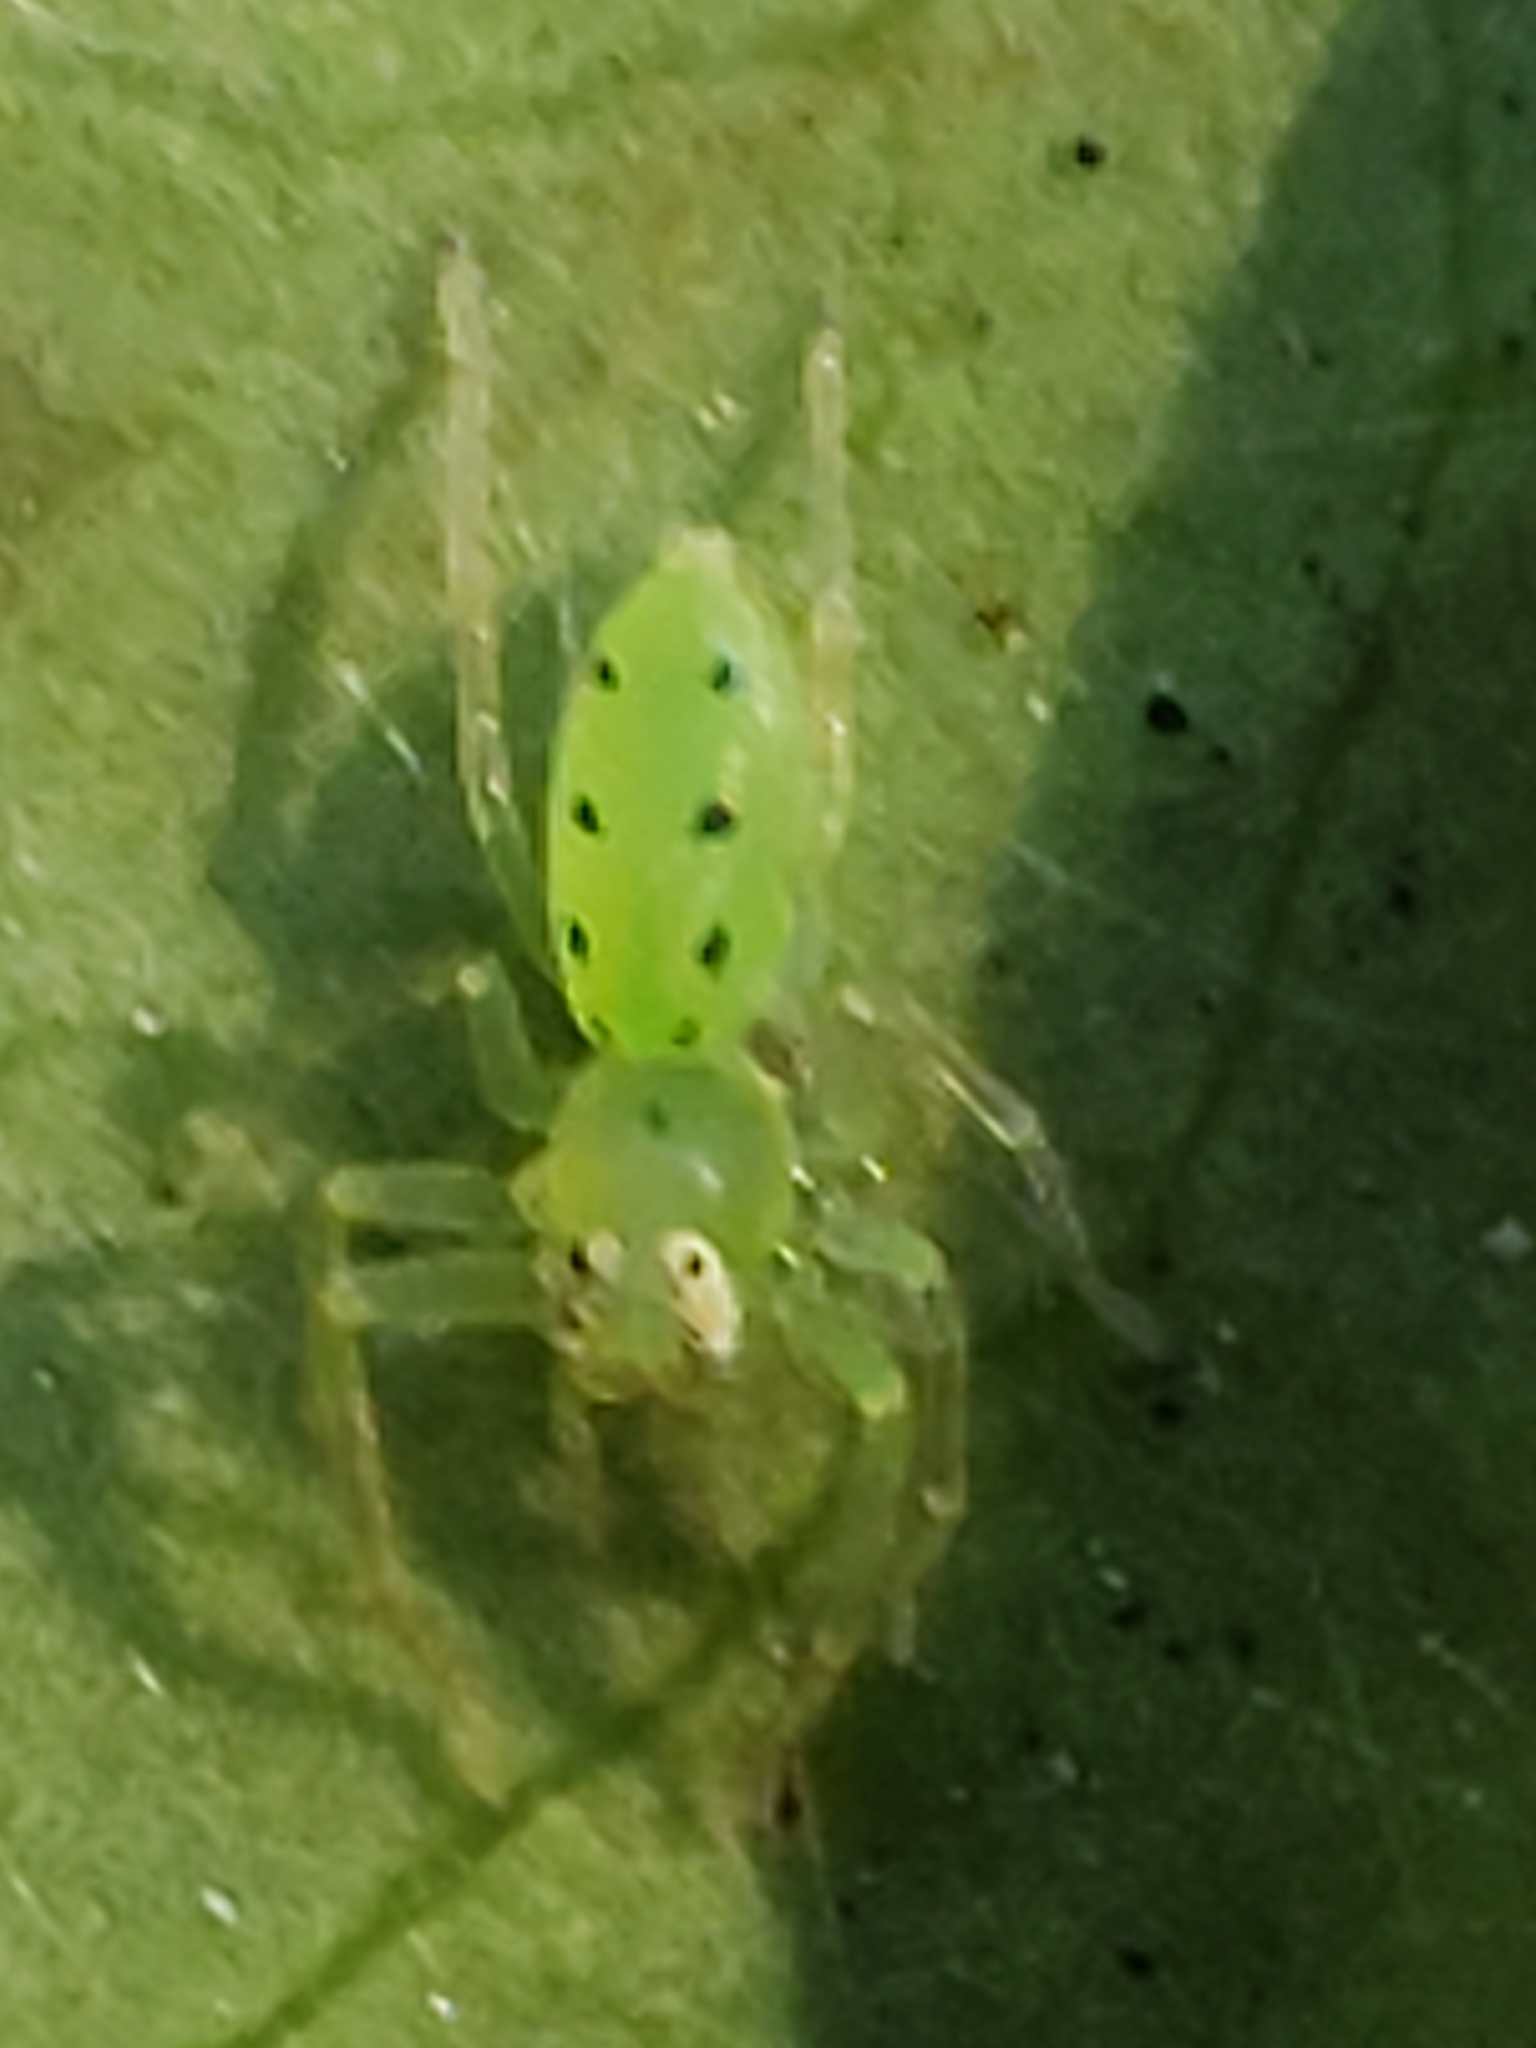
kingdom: Animalia
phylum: Arthropoda
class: Arachnida
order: Araneae
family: Salticidae
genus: Lyssomanes
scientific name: Lyssomanes viridis
